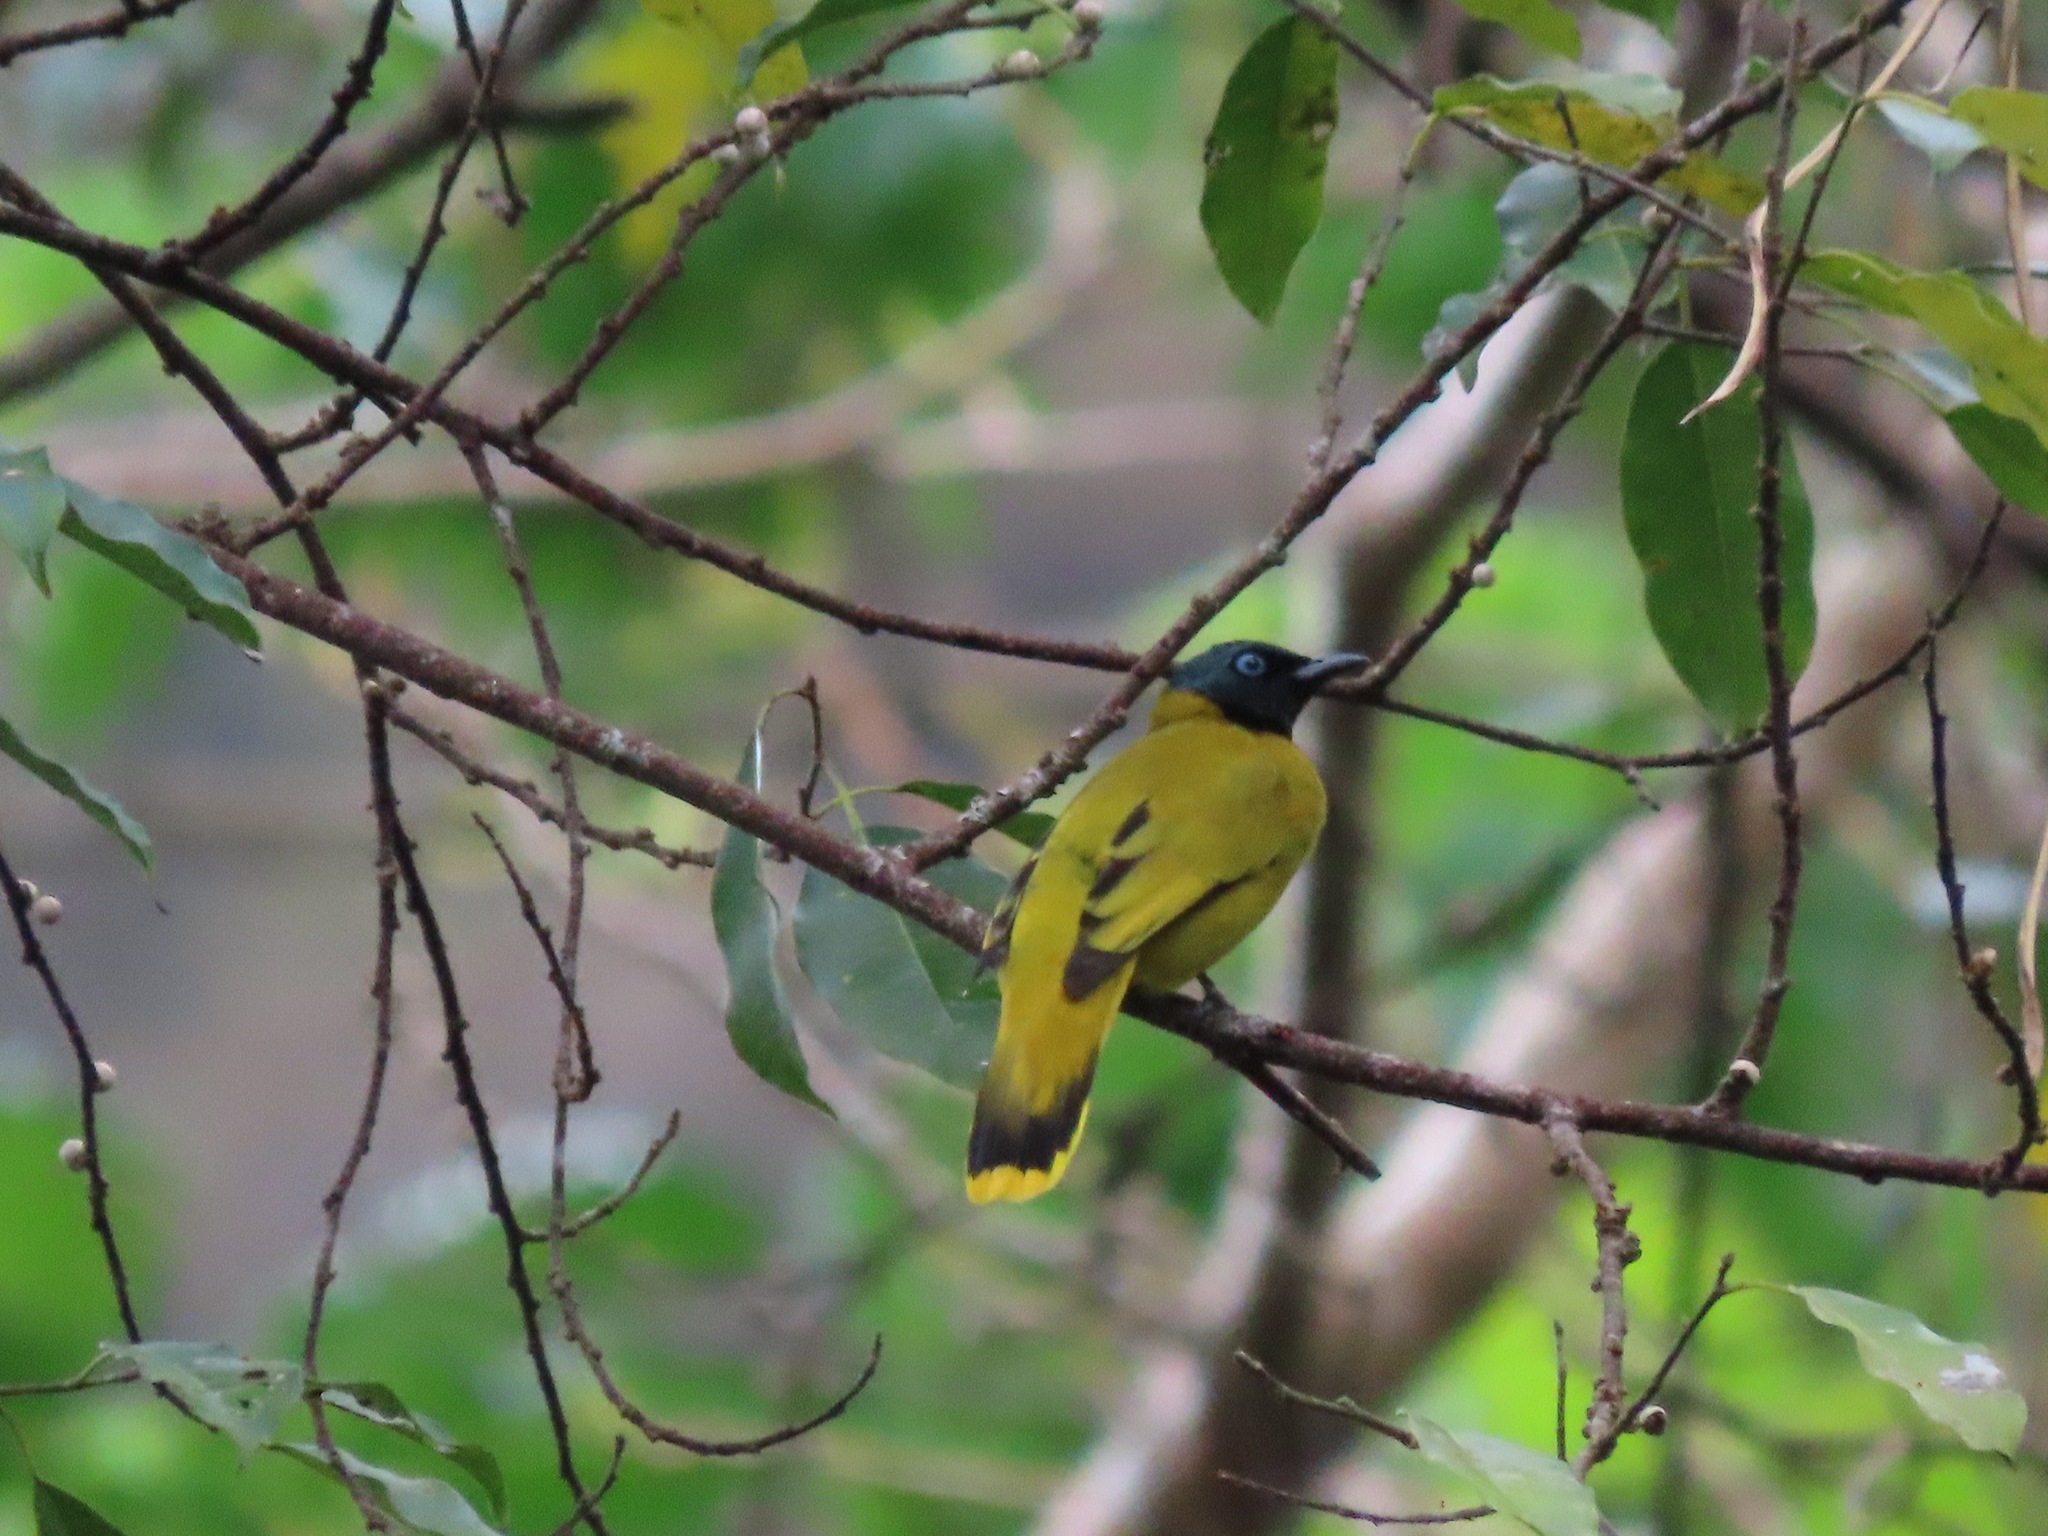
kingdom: Animalia
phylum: Chordata
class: Aves
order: Passeriformes
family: Pycnonotidae
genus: Microtarsus
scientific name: Microtarsus
